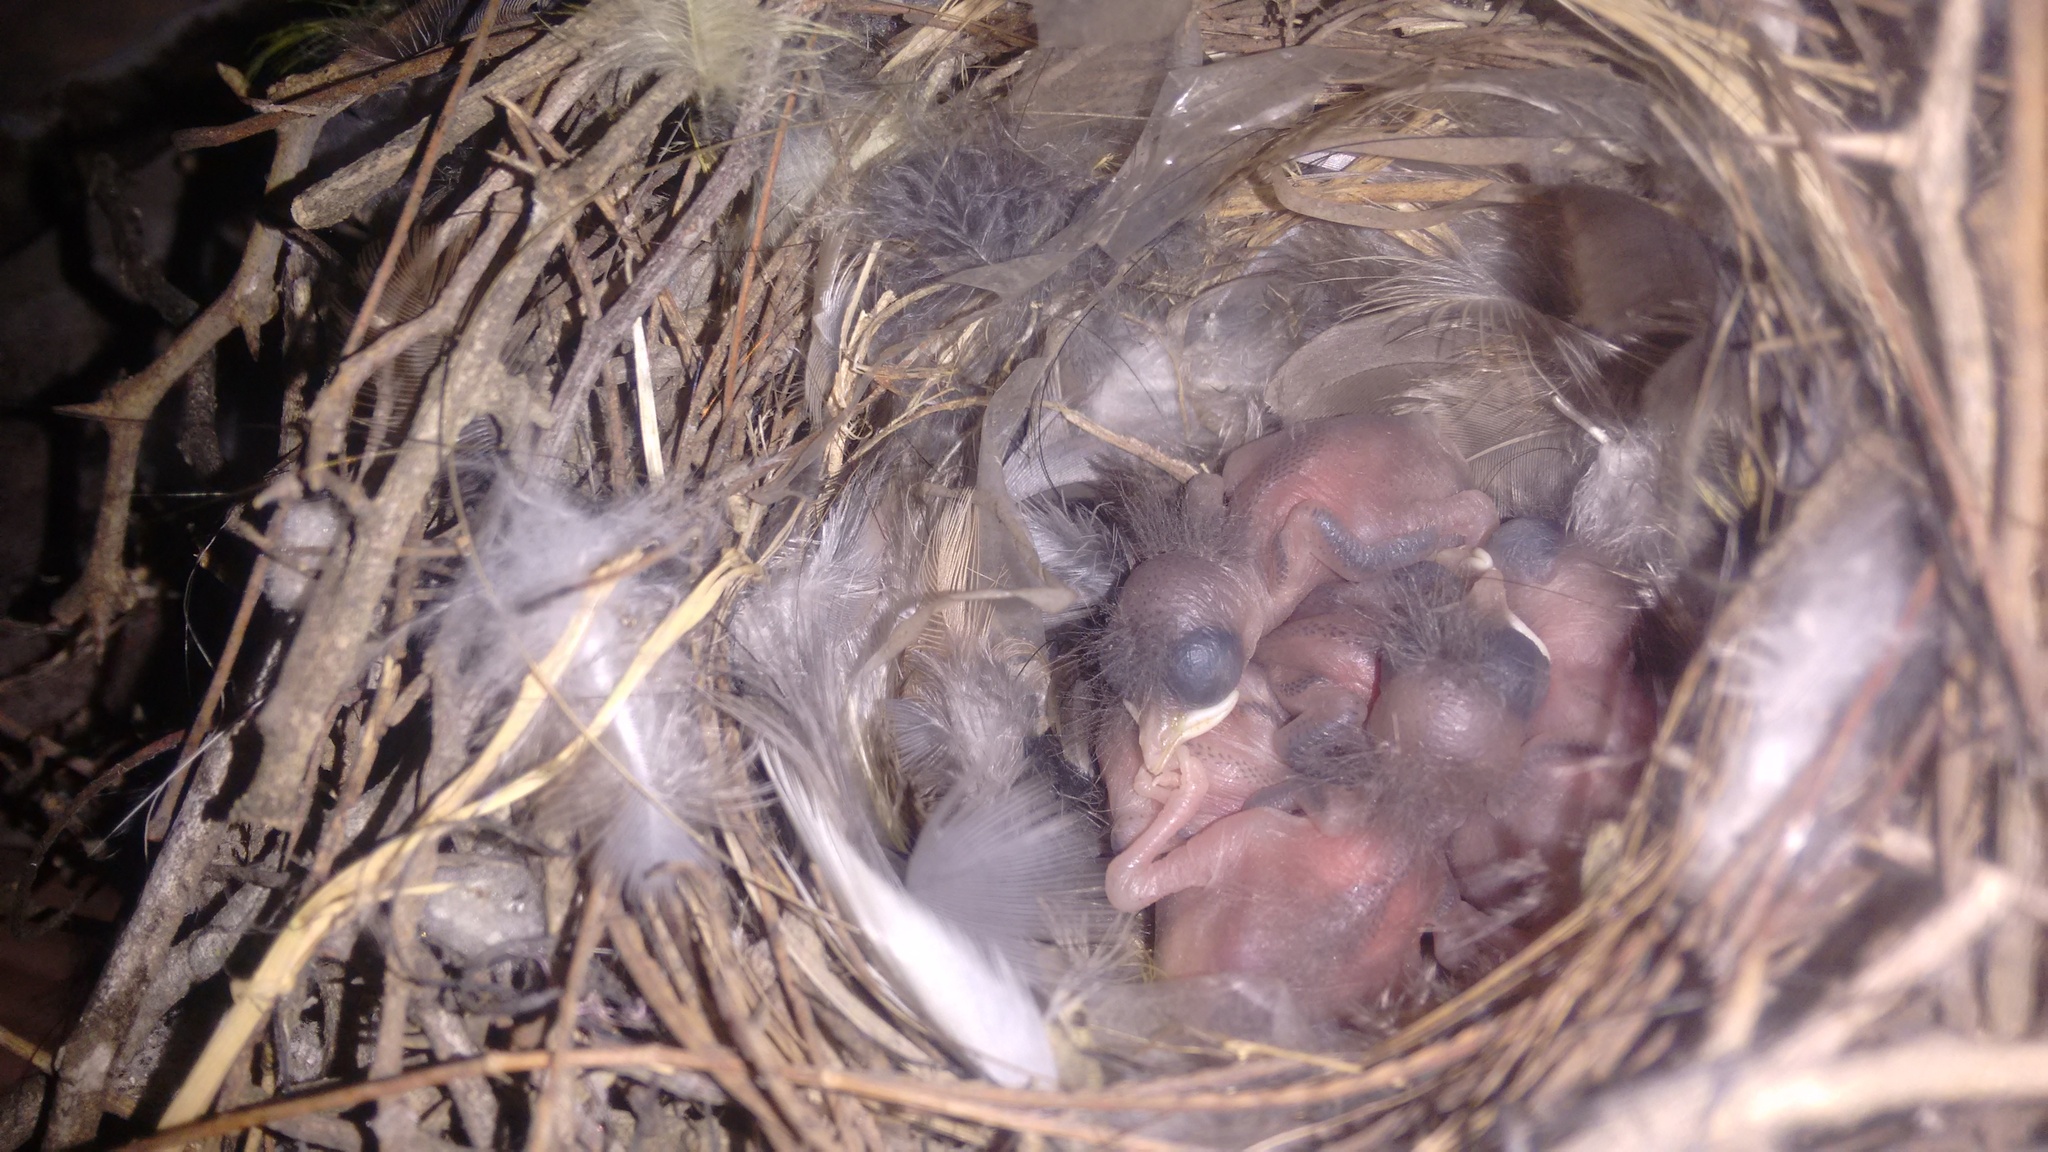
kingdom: Animalia
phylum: Chordata
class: Aves
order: Passeriformes
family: Troglodytidae
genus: Troglodytes
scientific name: Troglodytes aedon
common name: House wren
